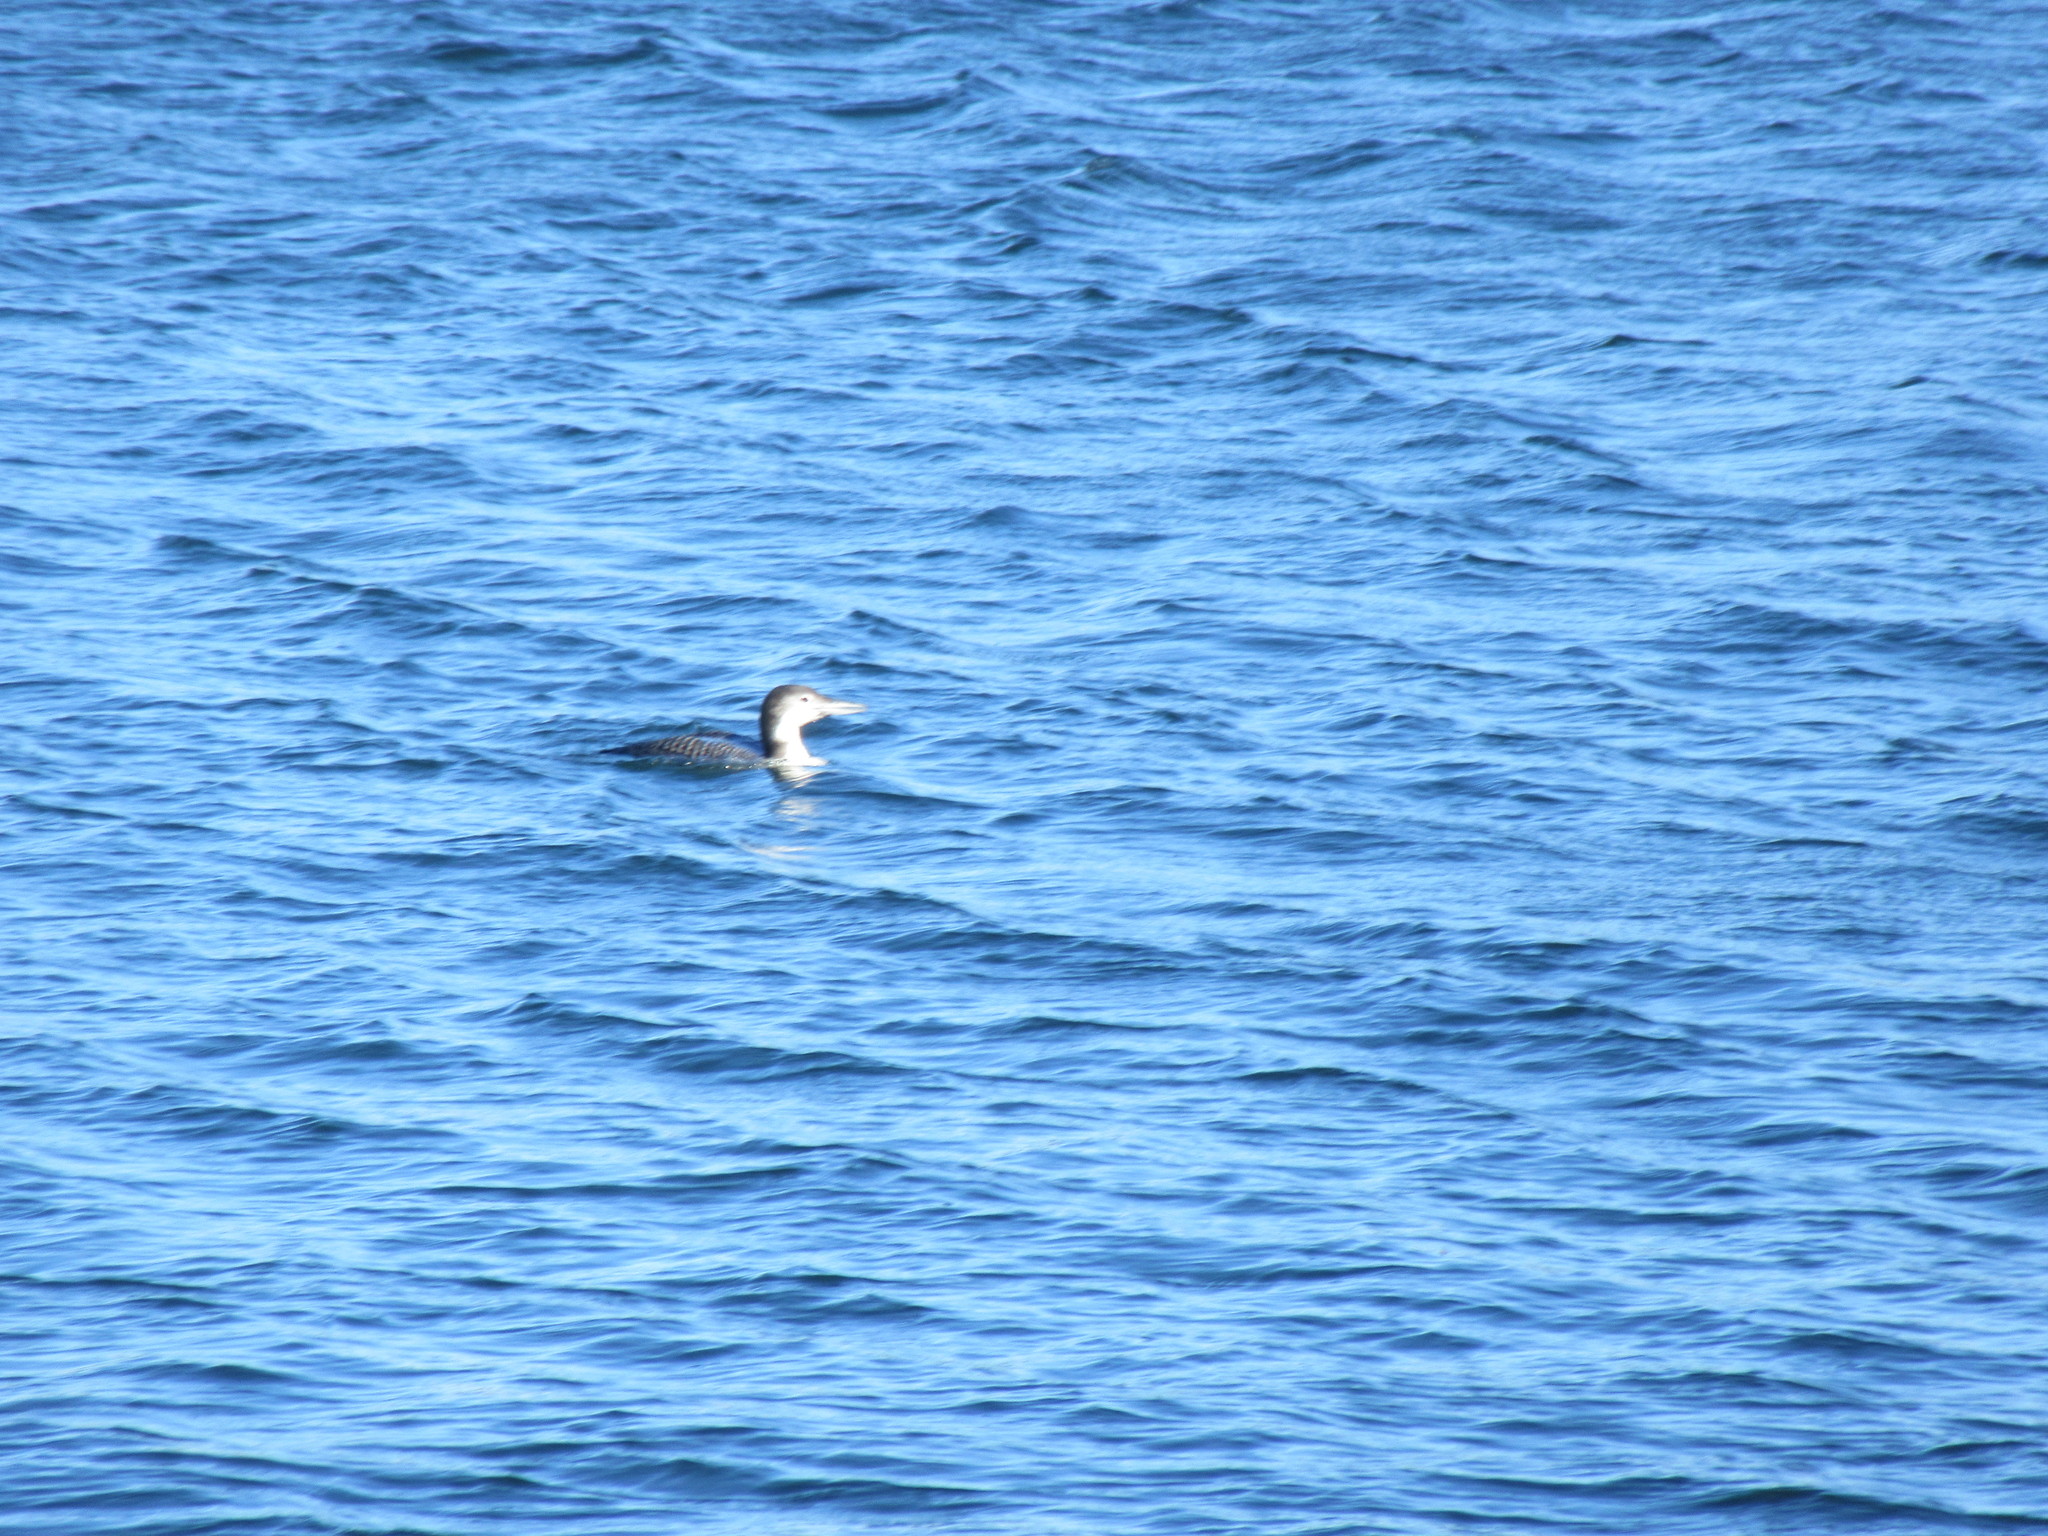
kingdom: Animalia
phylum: Chordata
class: Aves
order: Gaviiformes
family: Gaviidae
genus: Gavia
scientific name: Gavia immer
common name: Common loon
